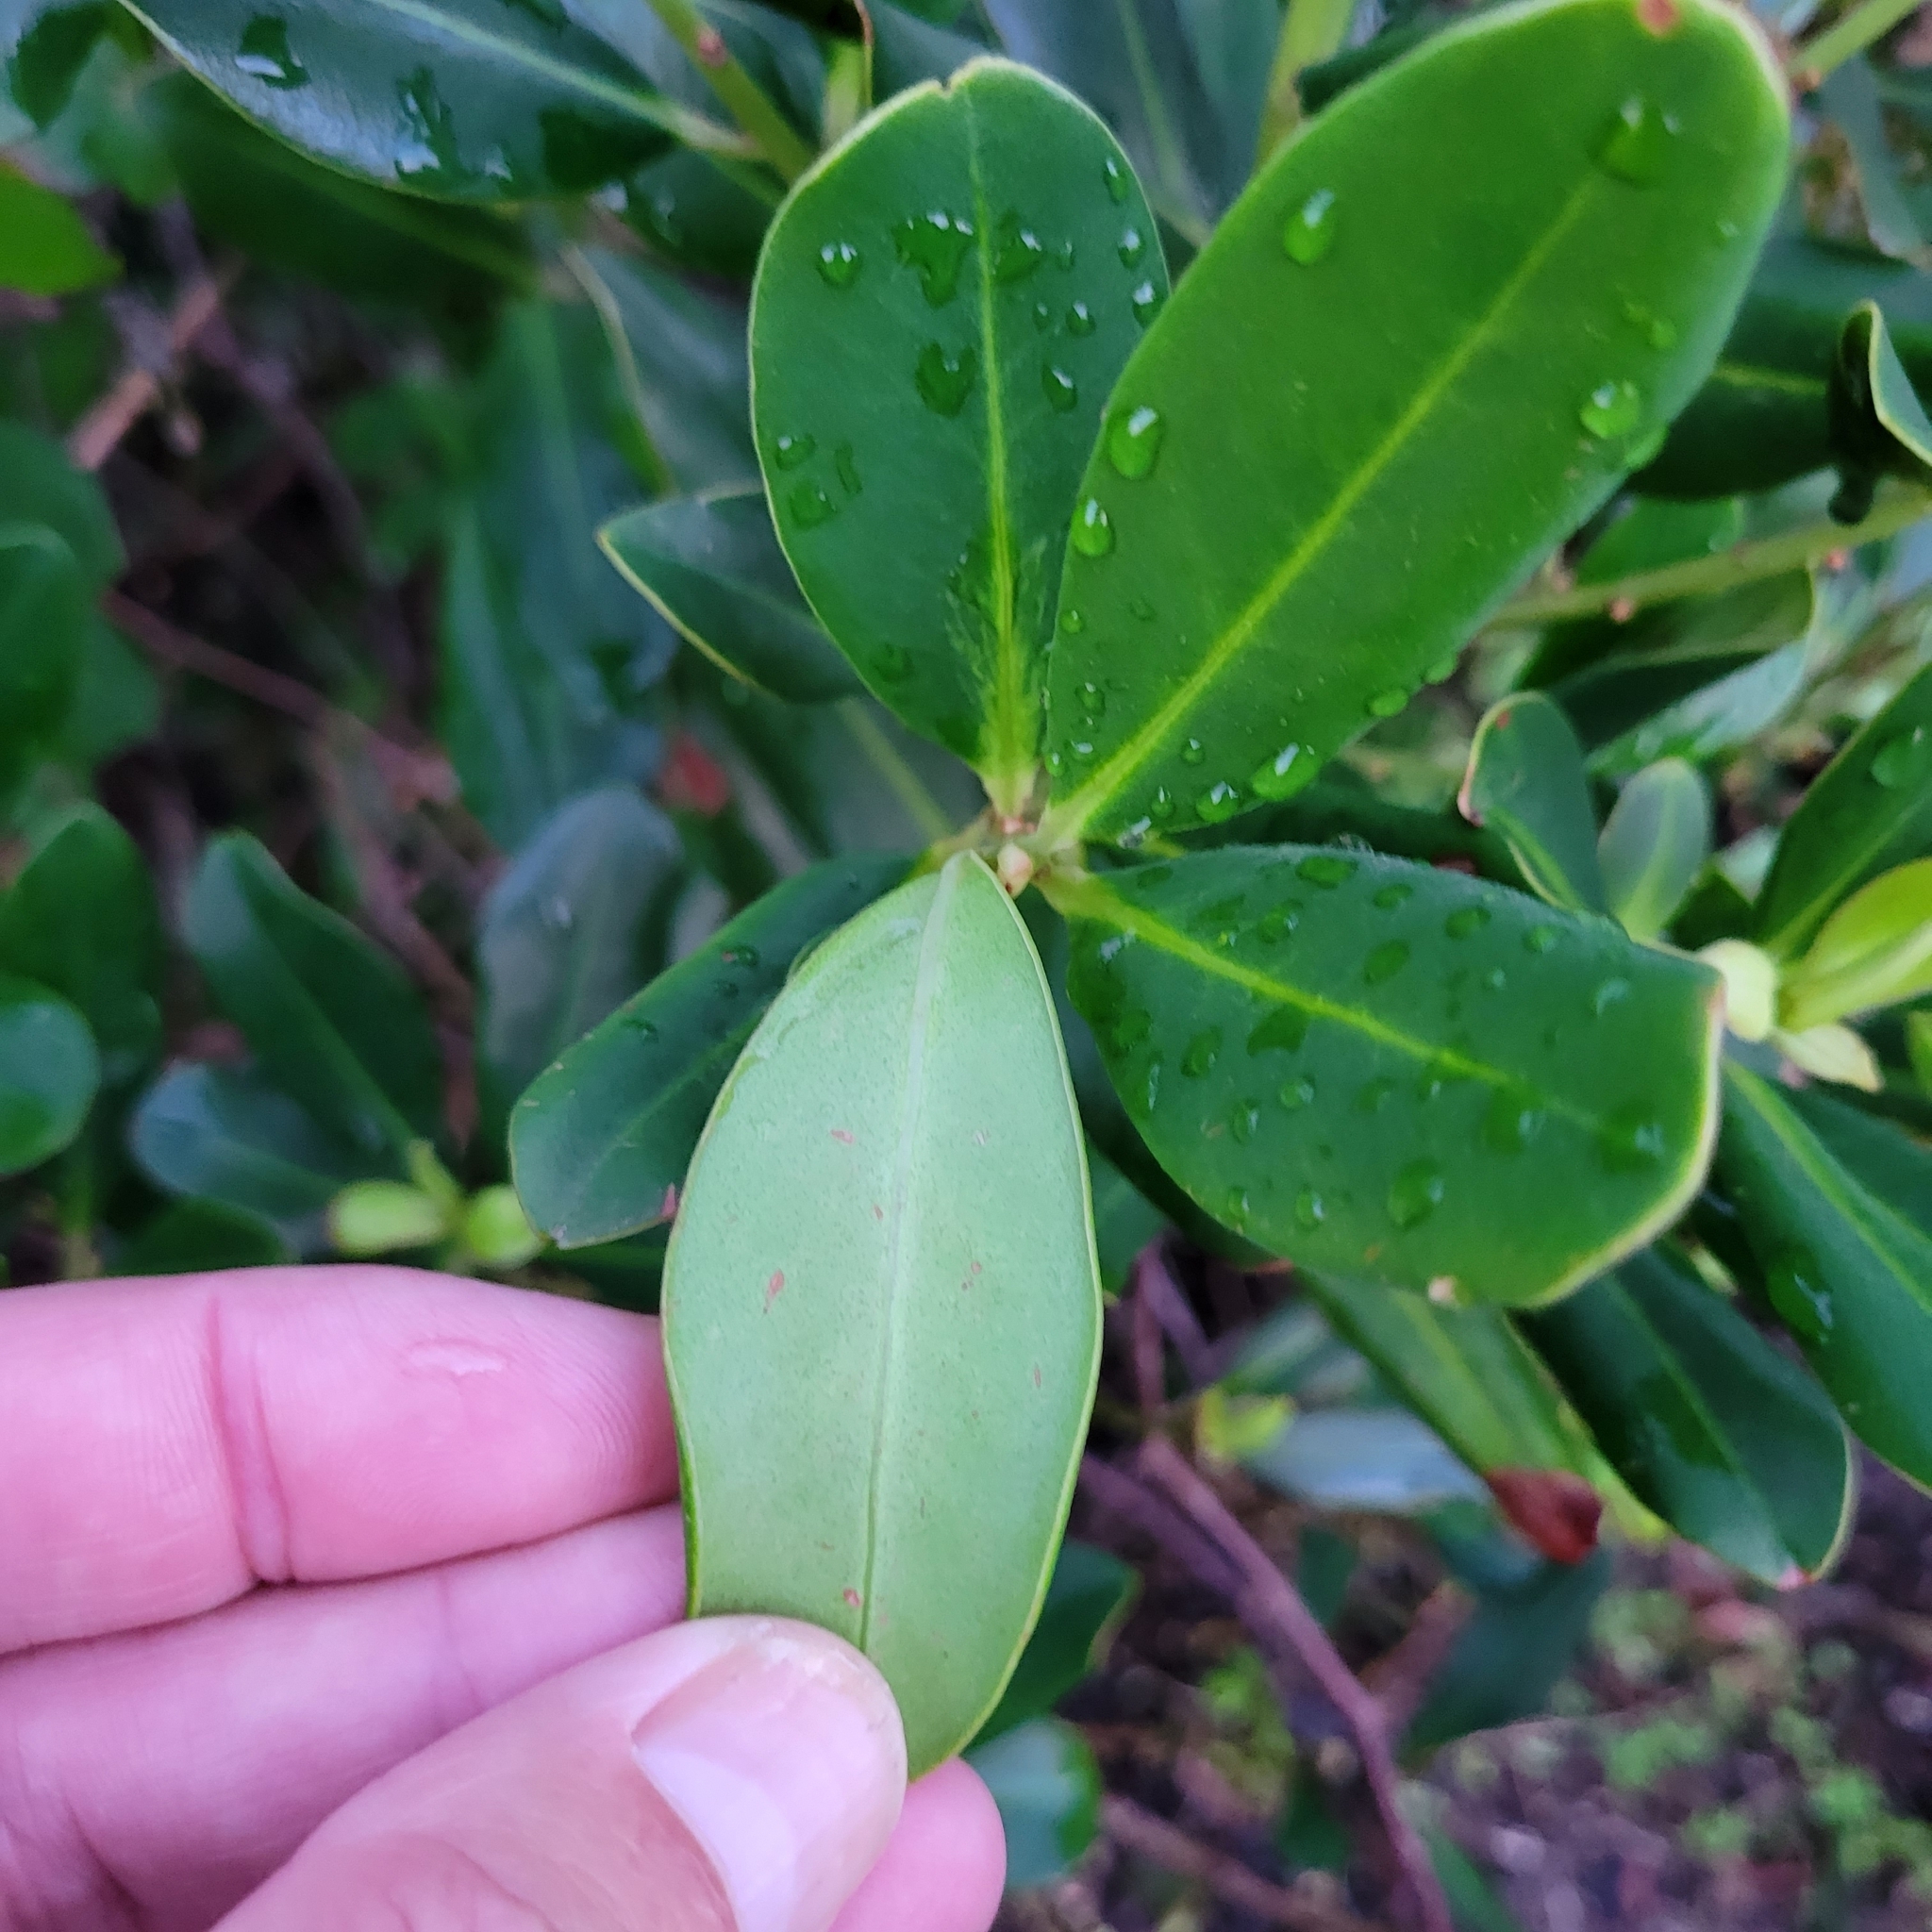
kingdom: Plantae
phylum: Tracheophyta
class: Magnoliopsida
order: Ericales
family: Primulaceae
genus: Myrsine
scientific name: Myrsine floridana
